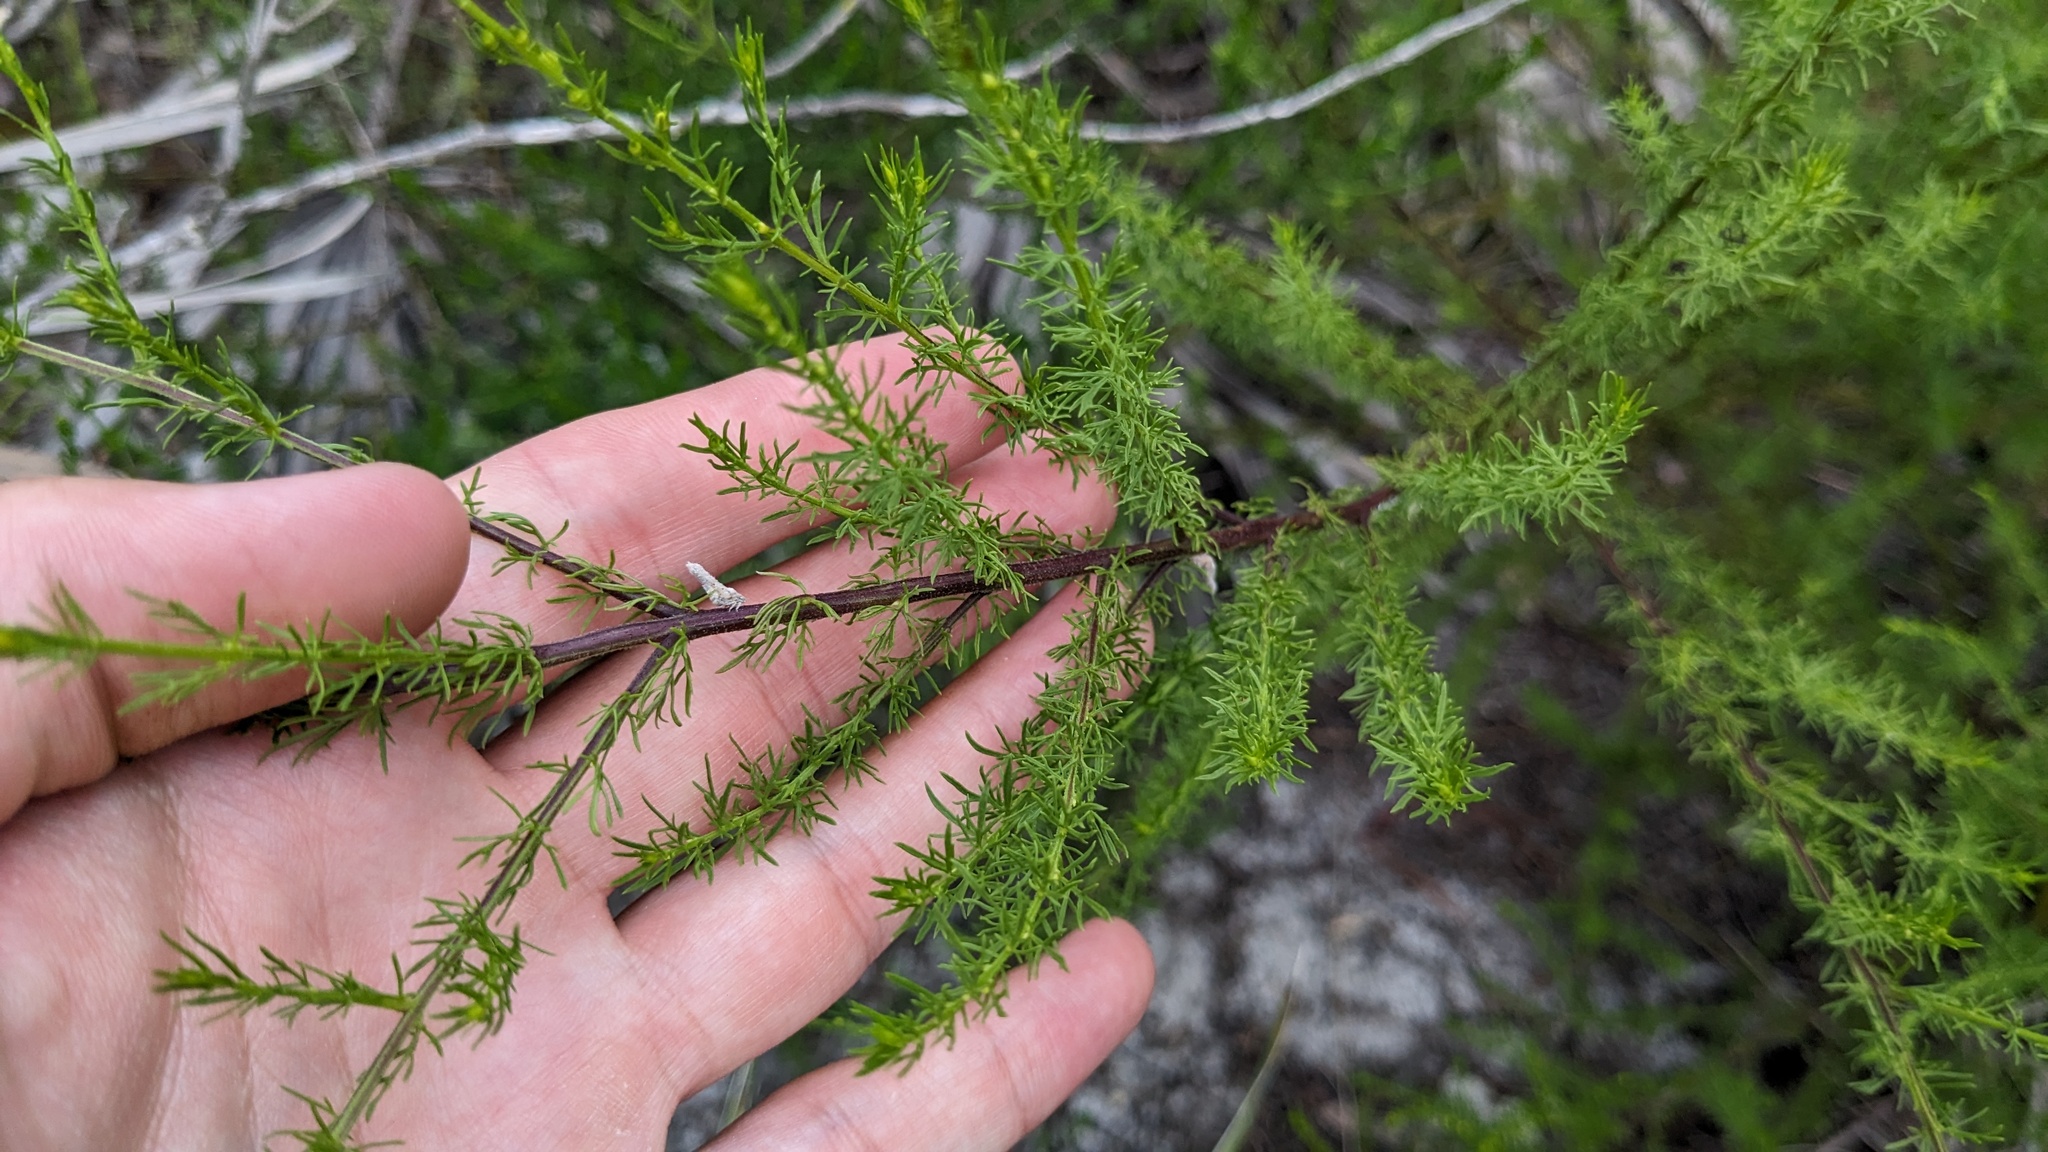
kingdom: Plantae
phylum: Tracheophyta
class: Magnoliopsida
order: Lamiales
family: Orobanchaceae
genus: Seymeria
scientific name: Seymeria cassioides
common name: Yaupon black-senna
